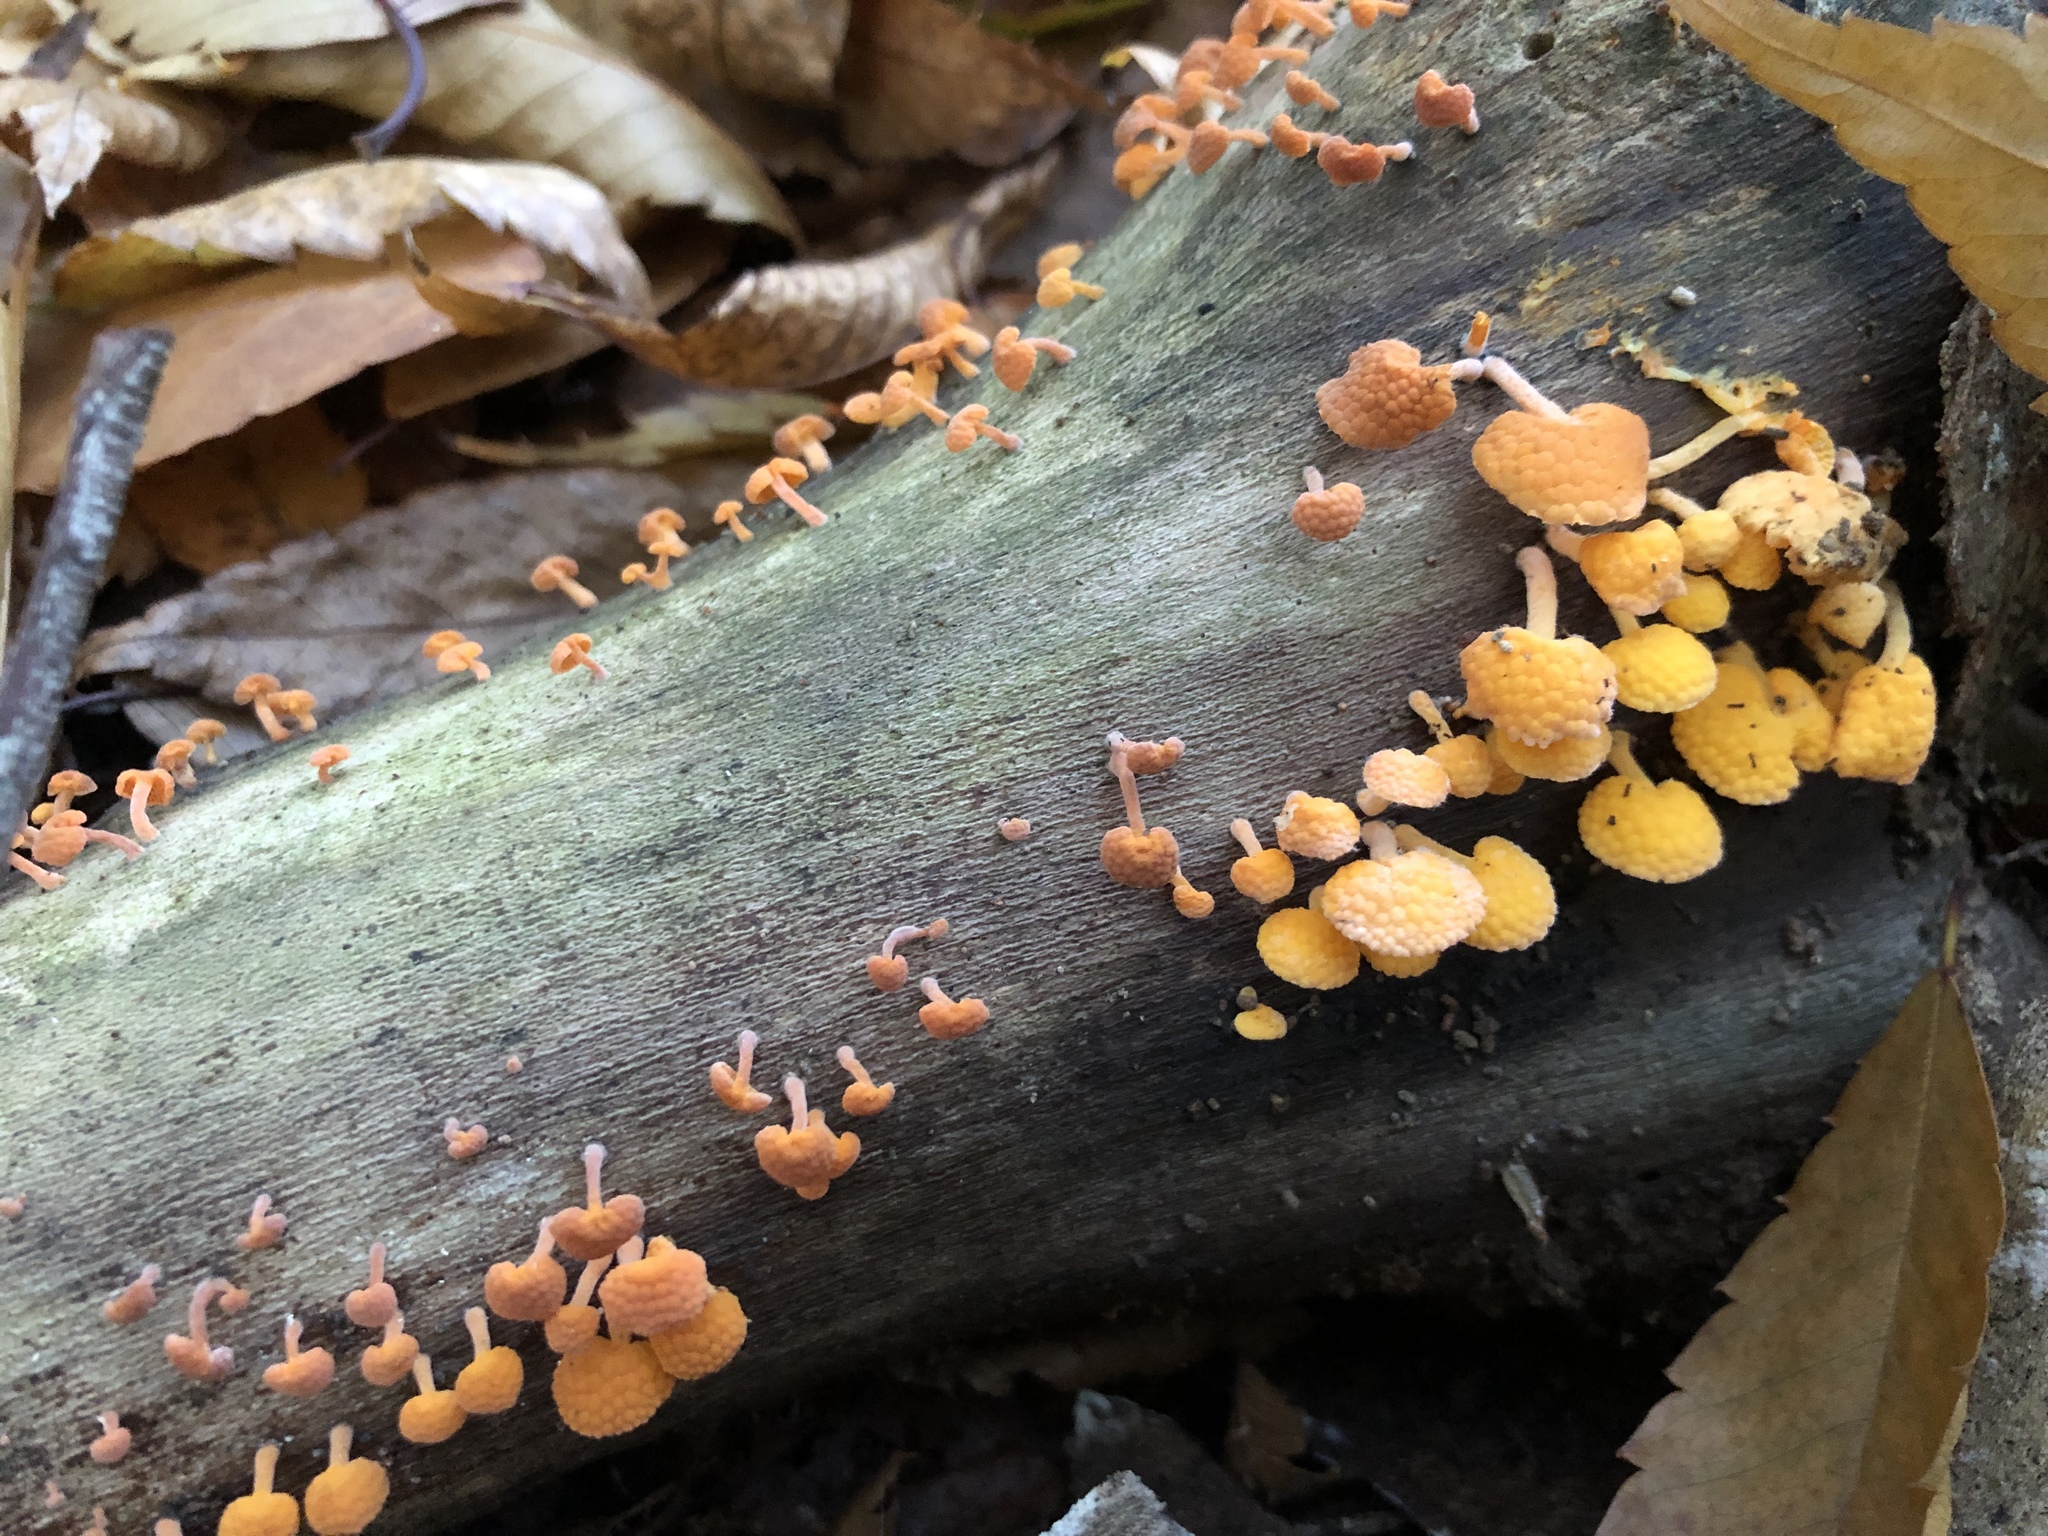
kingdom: Fungi
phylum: Basidiomycota
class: Agaricomycetes
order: Agaricales
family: Mycenaceae
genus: Favolaschia
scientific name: Favolaschia claudopus
